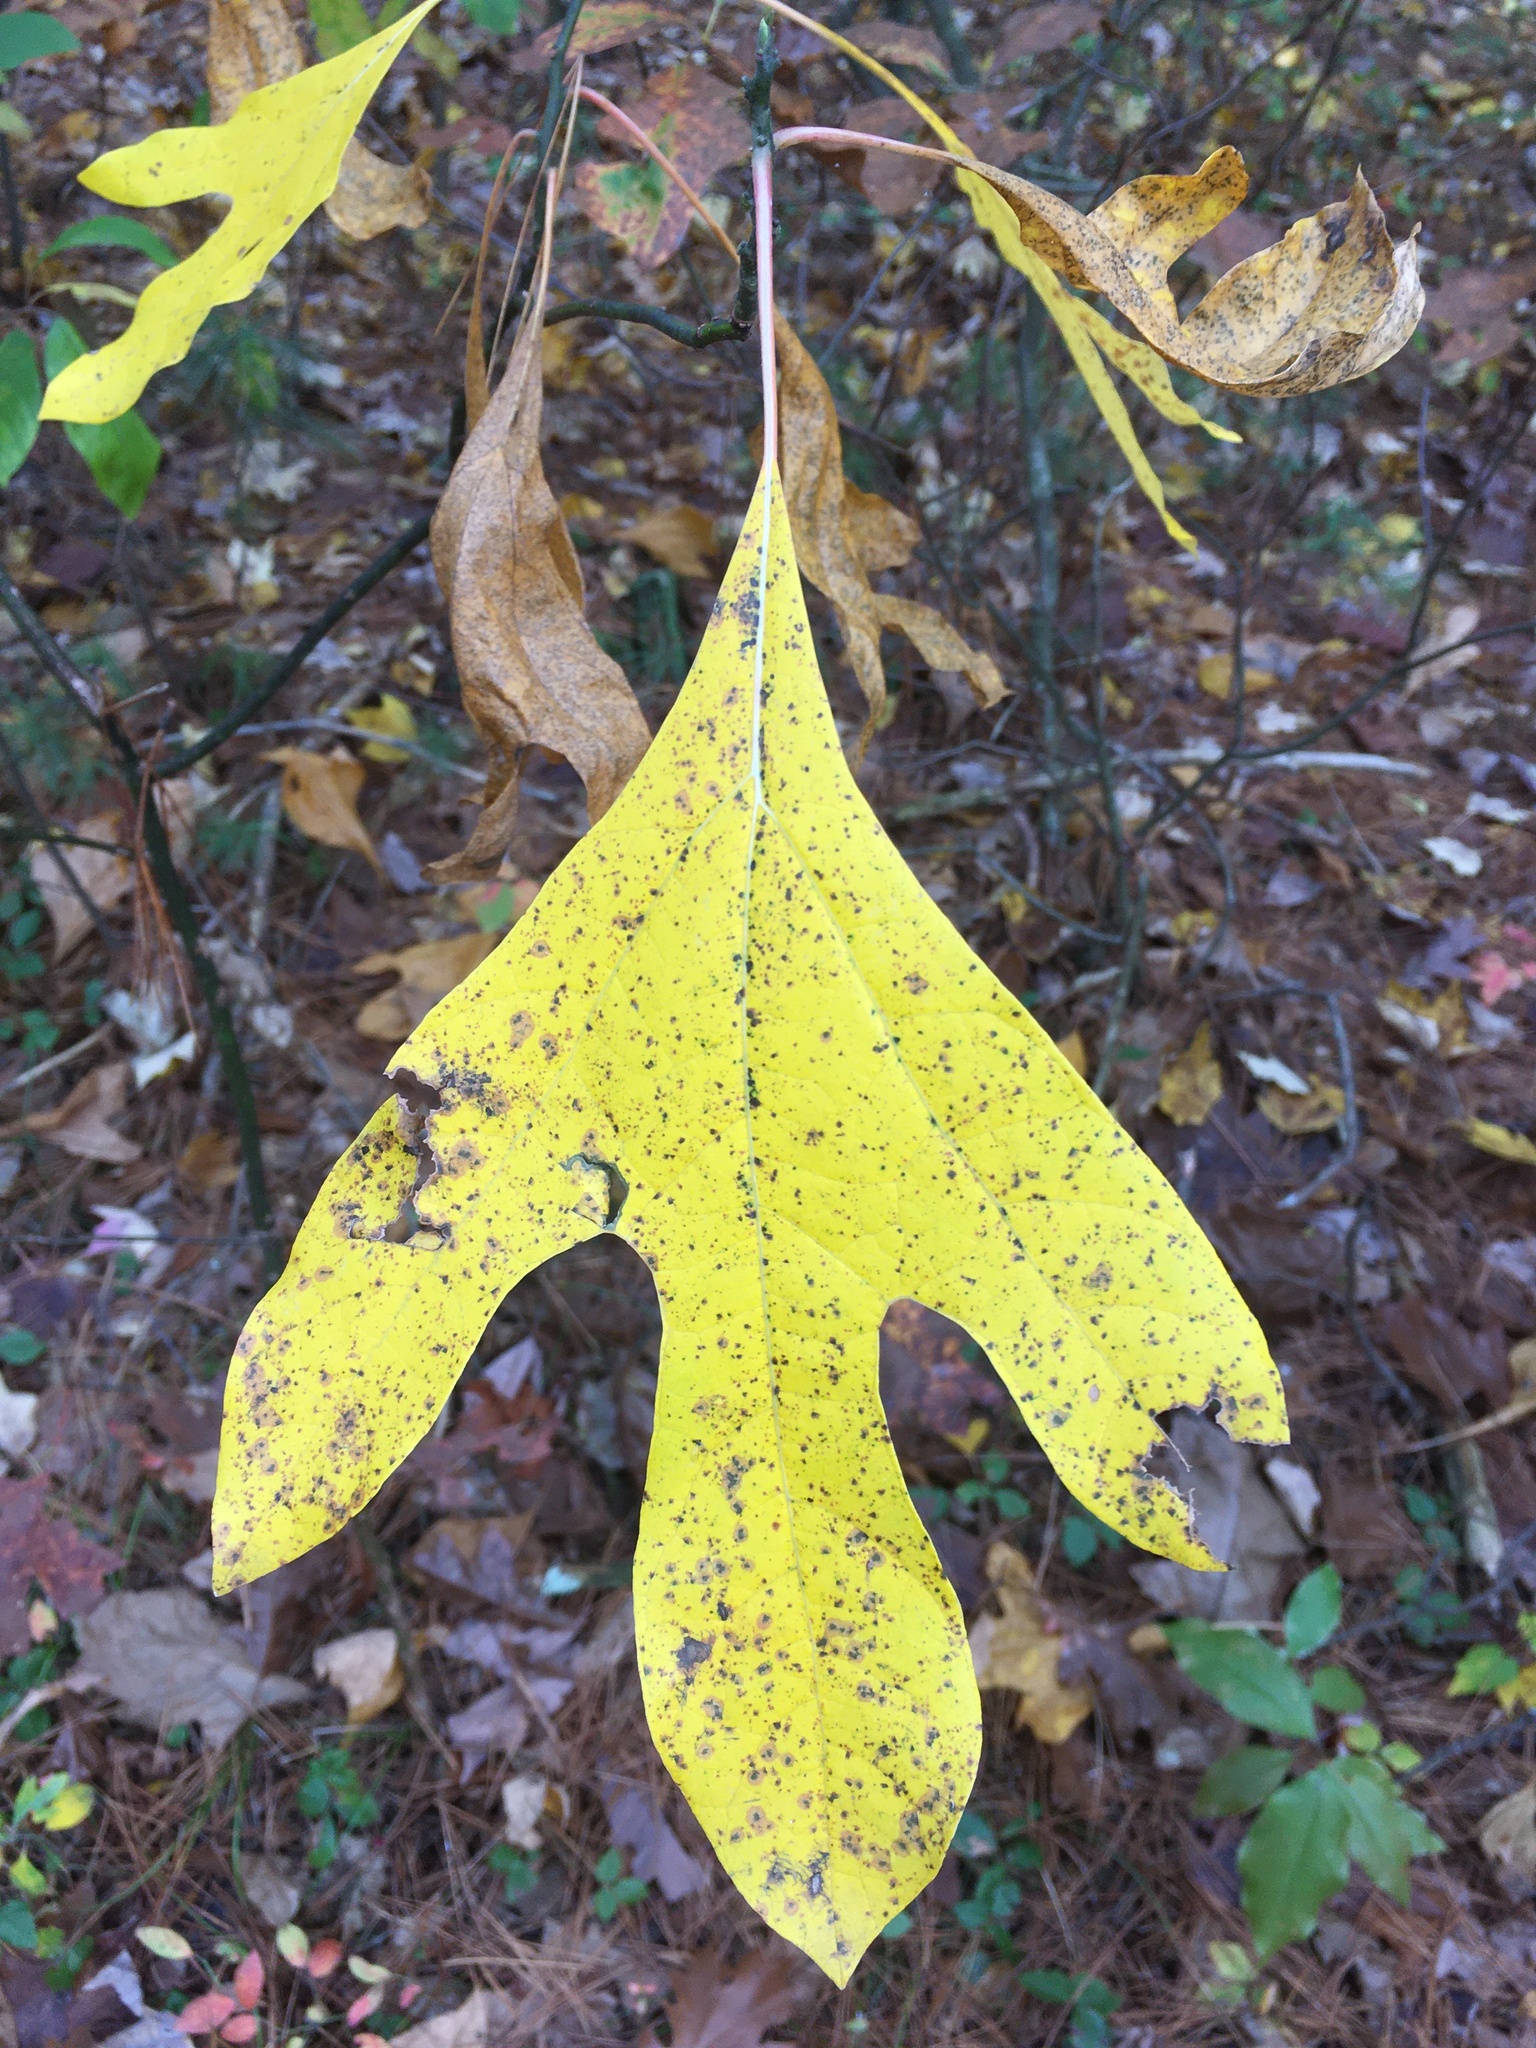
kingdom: Plantae
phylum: Tracheophyta
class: Magnoliopsida
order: Laurales
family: Lauraceae
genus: Sassafras
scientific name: Sassafras albidum
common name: Sassafras
